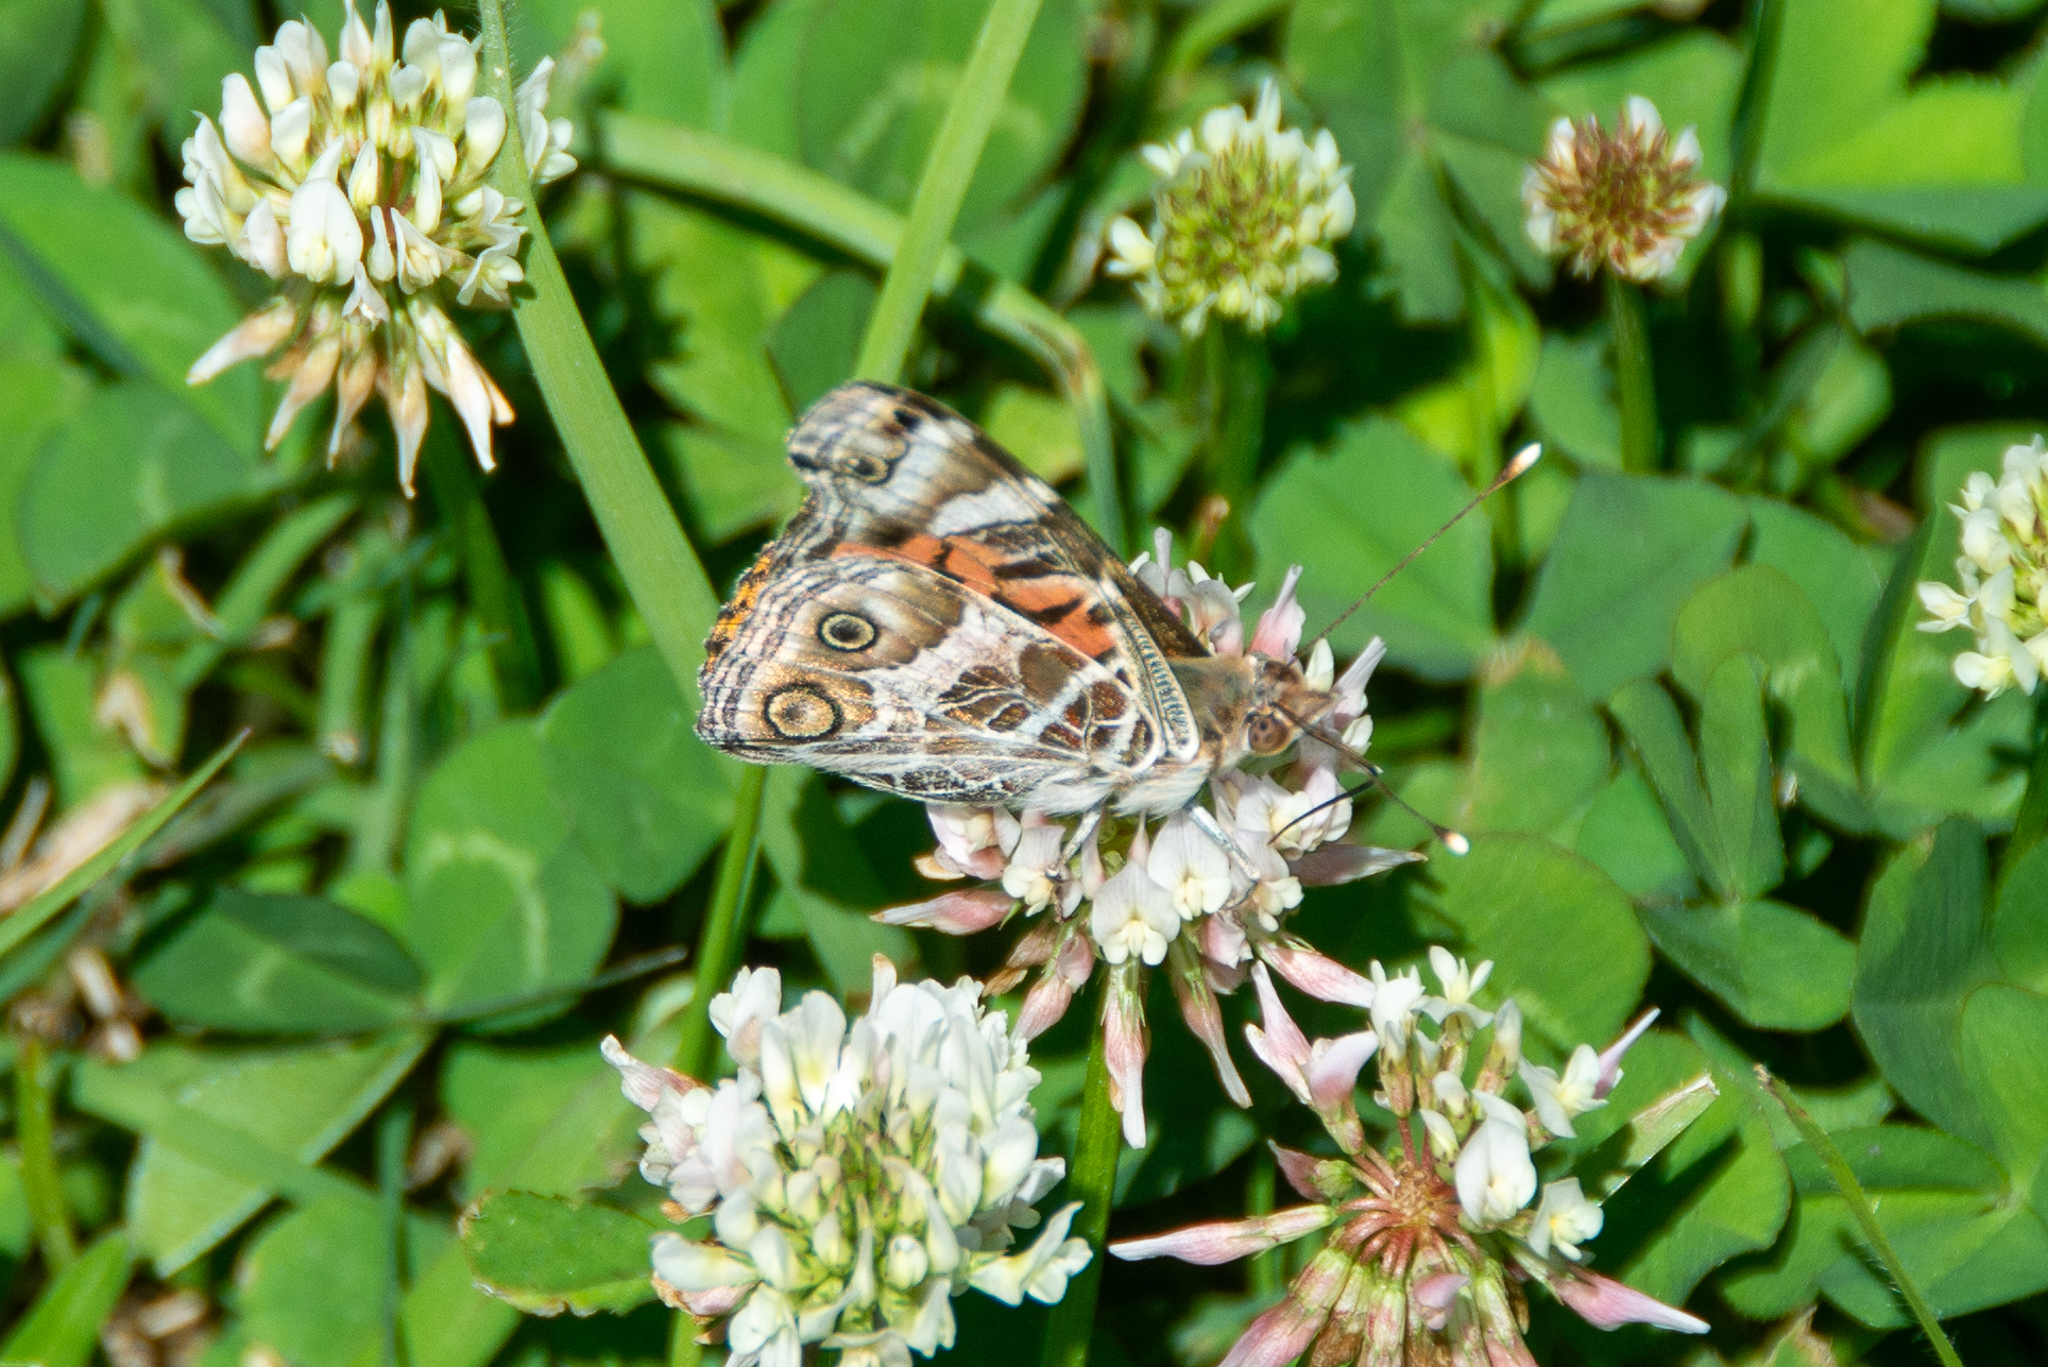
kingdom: Animalia
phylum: Arthropoda
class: Insecta
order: Lepidoptera
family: Nymphalidae
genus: Vanessa
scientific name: Vanessa virginiensis
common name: American lady
